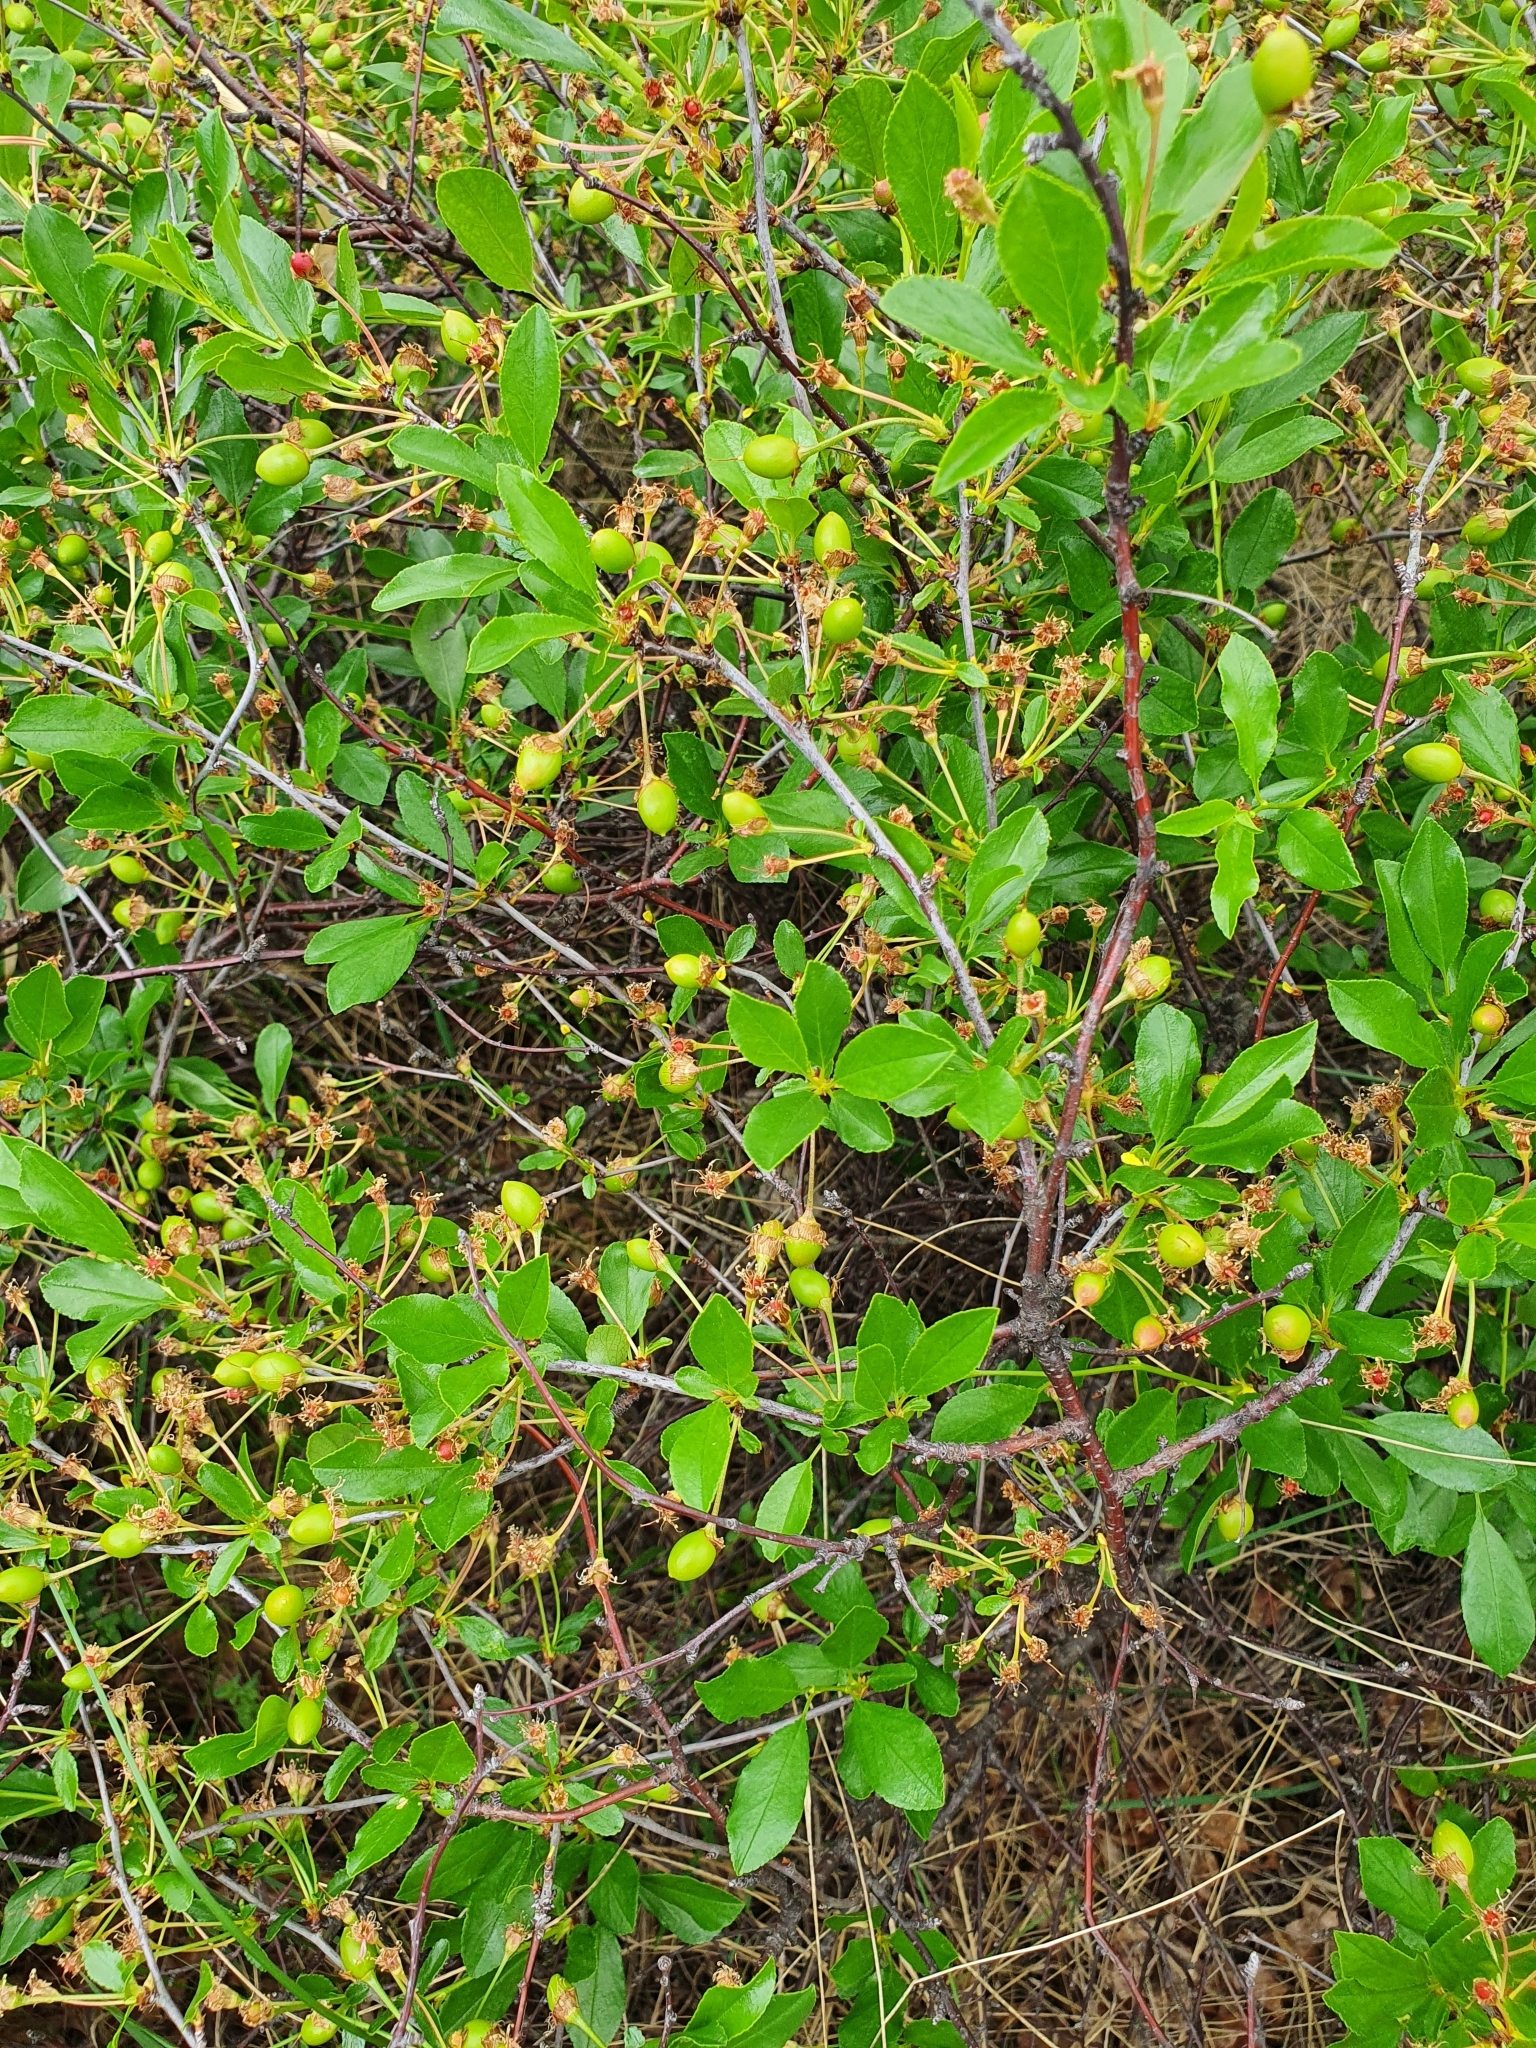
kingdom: Plantae
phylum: Tracheophyta
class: Magnoliopsida
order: Rosales
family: Rosaceae
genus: Prunus
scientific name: Prunus fruticosa
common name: European dwarf cherry
